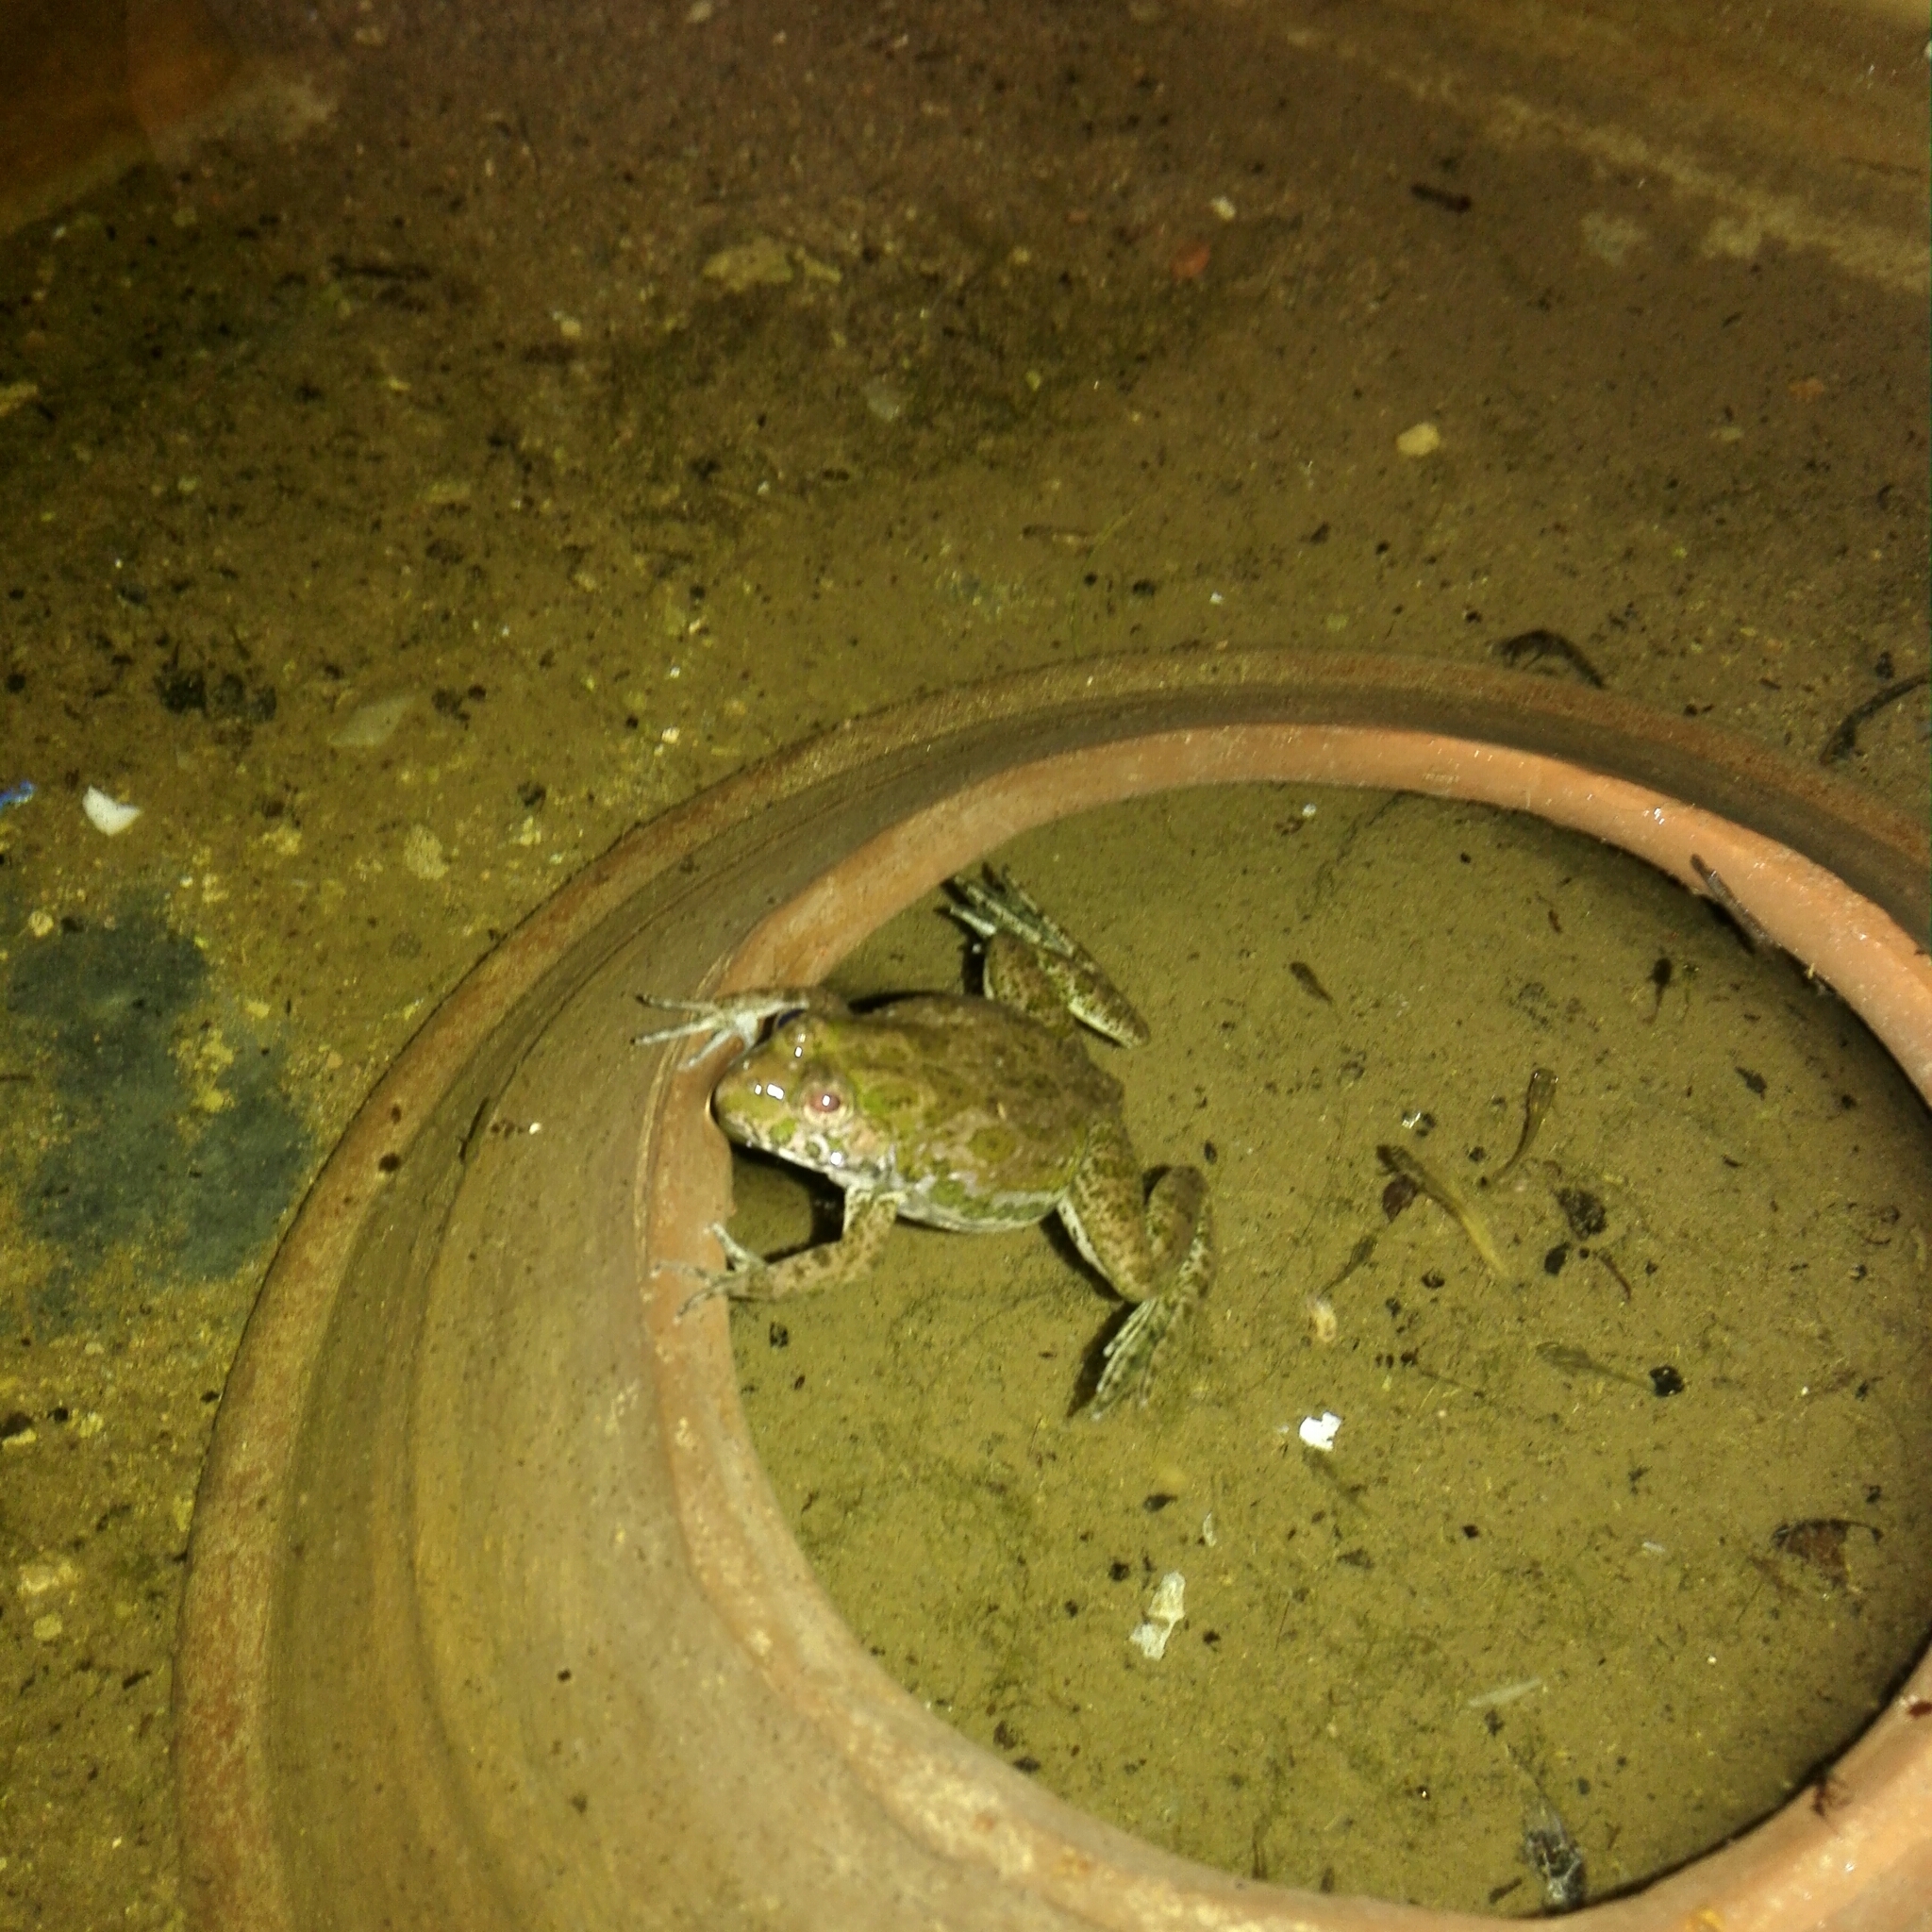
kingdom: Animalia
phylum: Chordata
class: Amphibia
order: Anura
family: Dicroglossidae
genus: Euphlyctis
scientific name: Euphlyctis cyanophlyctis
